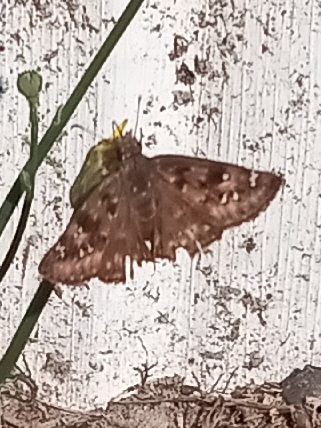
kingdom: Animalia
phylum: Arthropoda
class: Insecta
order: Lepidoptera
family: Hesperiidae
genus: Erynnis
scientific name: Erynnis horatius
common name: Horace's duskywing
